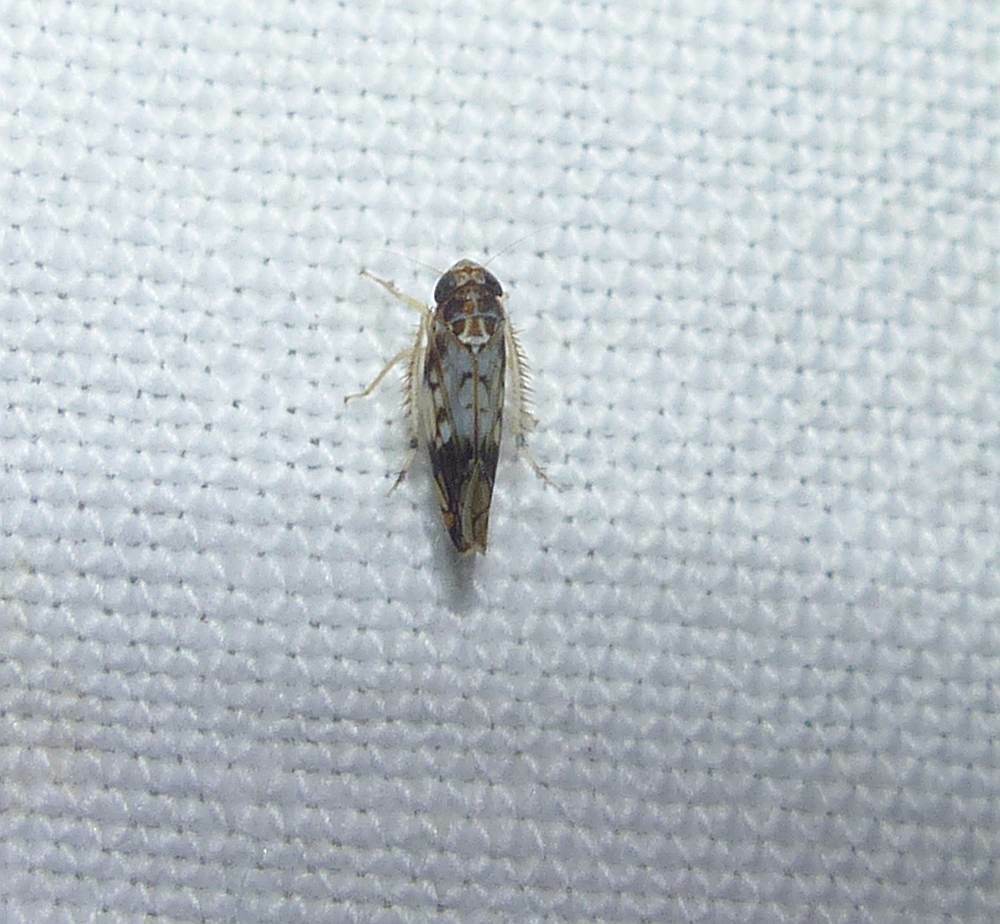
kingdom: Animalia
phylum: Arthropoda
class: Insecta
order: Hemiptera
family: Cicadellidae
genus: Scaphoideus
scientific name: Scaphoideus obtusus
